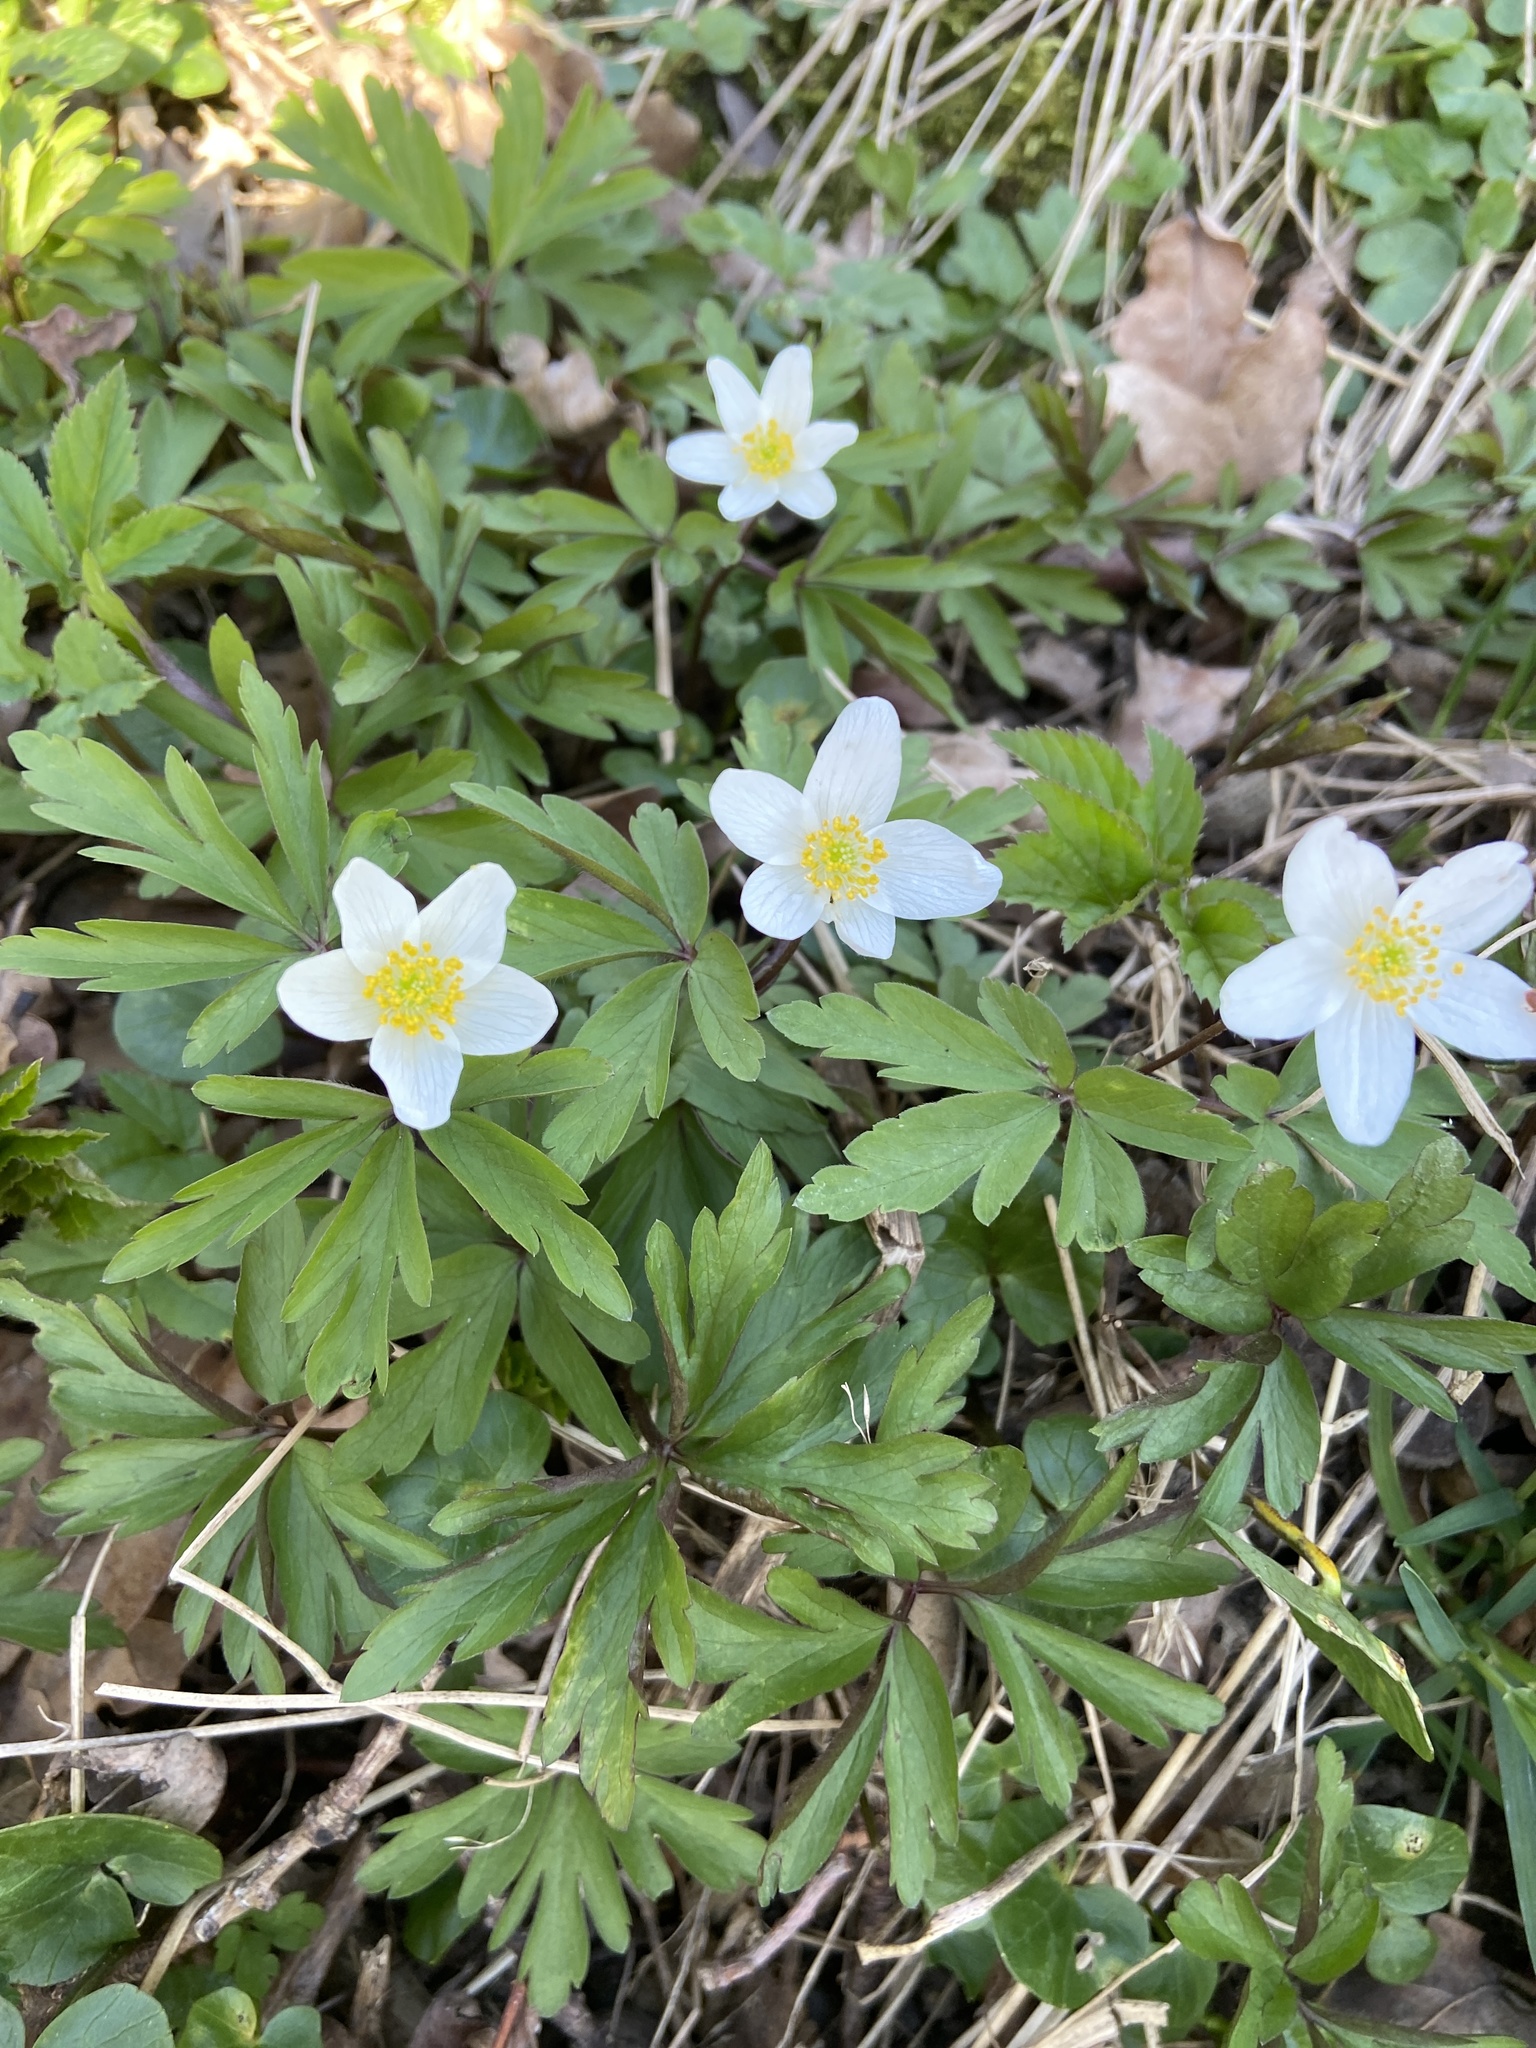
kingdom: Plantae
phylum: Tracheophyta
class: Magnoliopsida
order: Ranunculales
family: Ranunculaceae
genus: Anemone
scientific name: Anemone nemorosa
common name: Wood anemone
